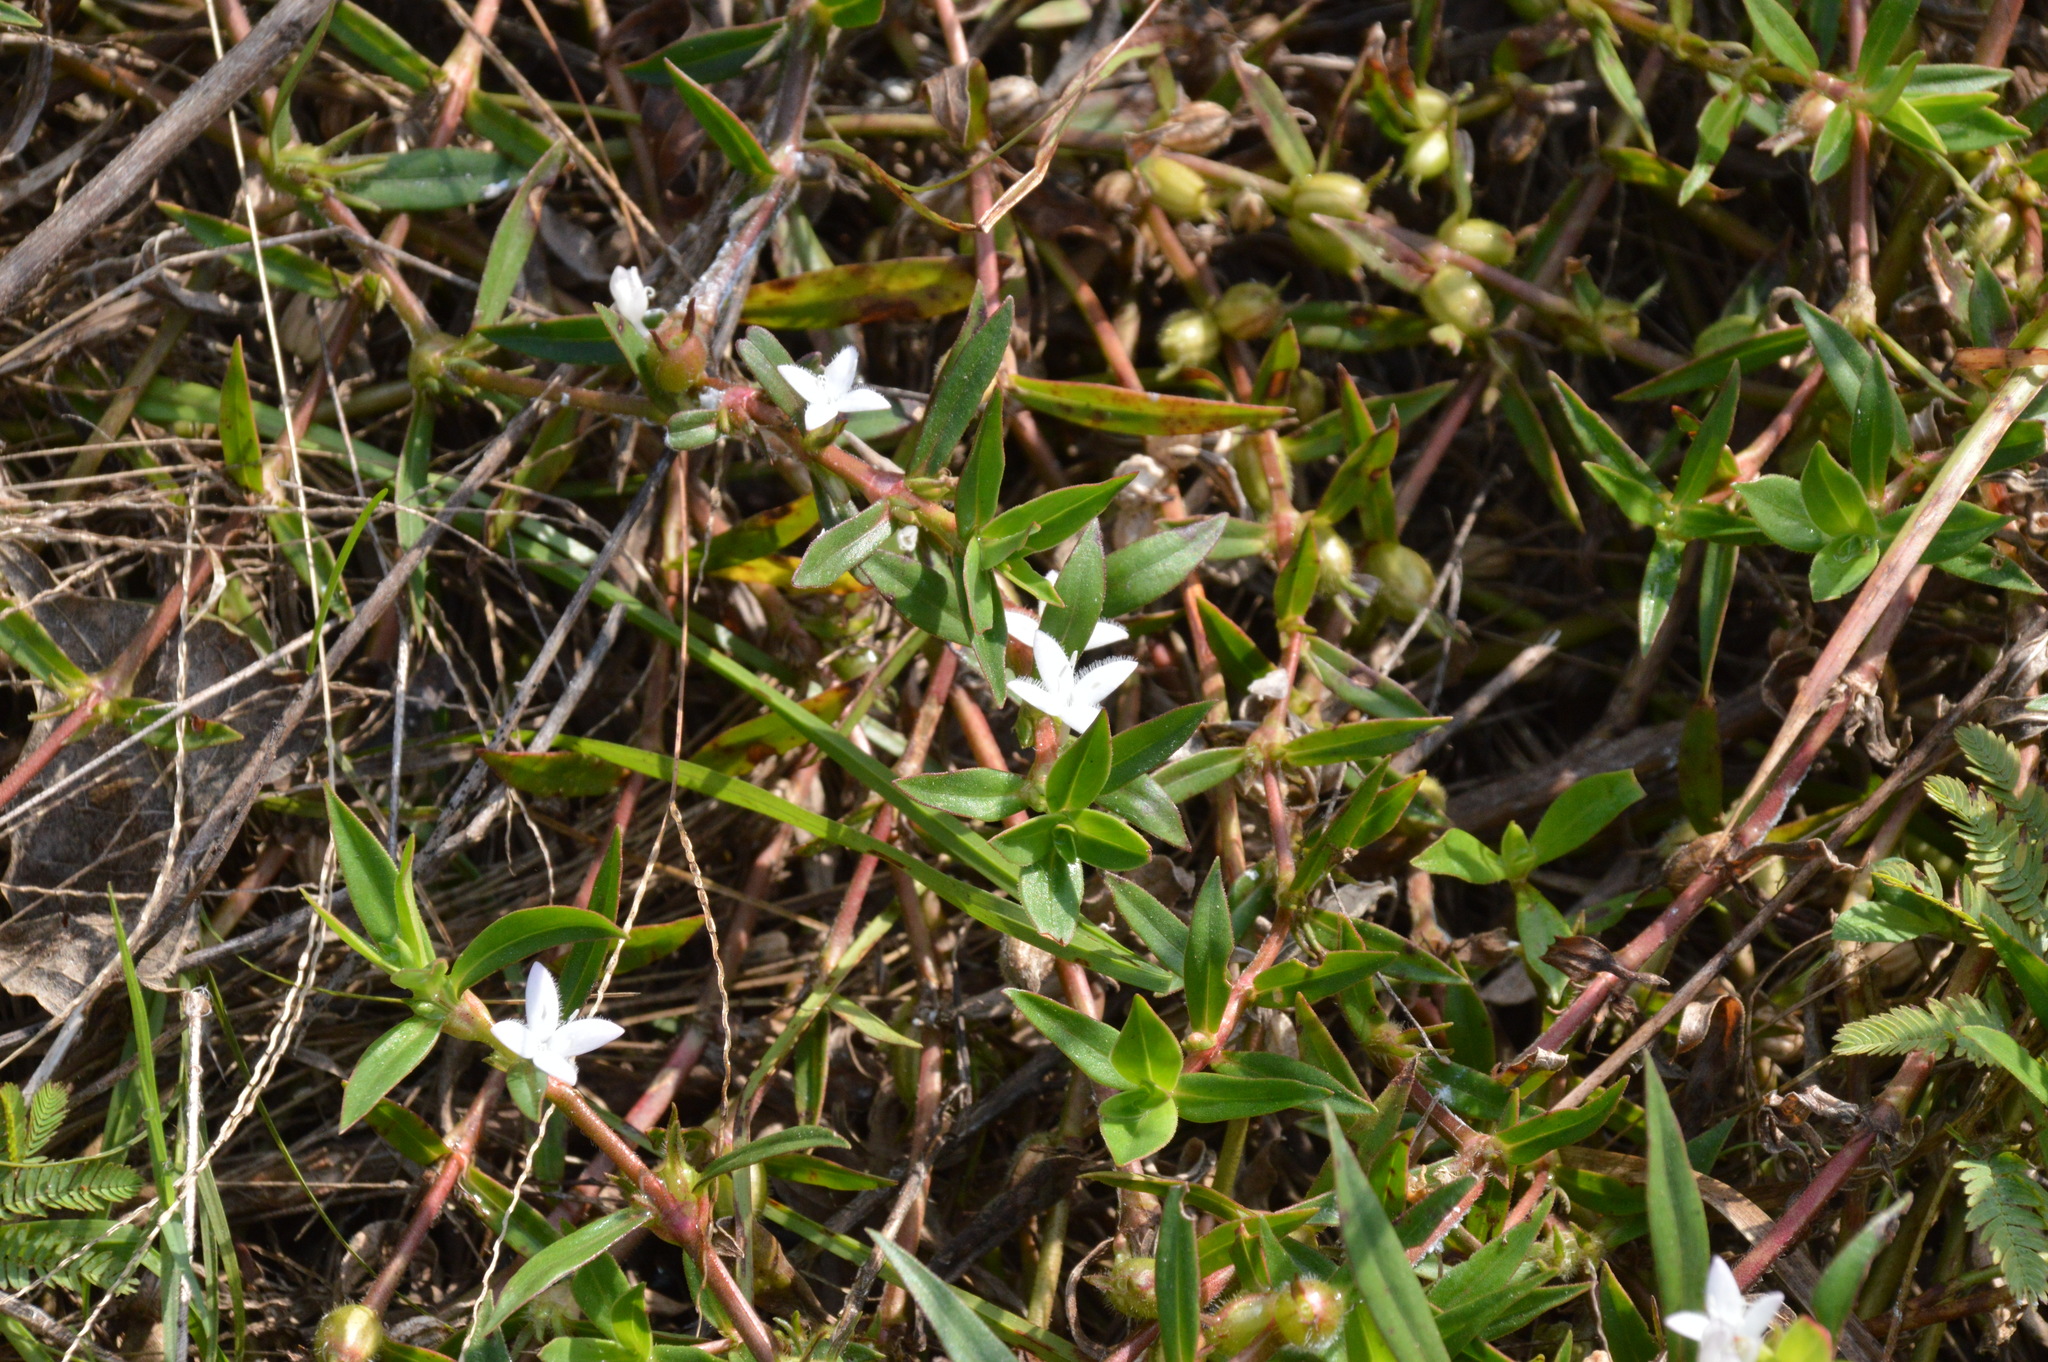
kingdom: Plantae
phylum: Tracheophyta
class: Magnoliopsida
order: Gentianales
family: Rubiaceae
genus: Diodia
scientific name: Diodia virginiana
